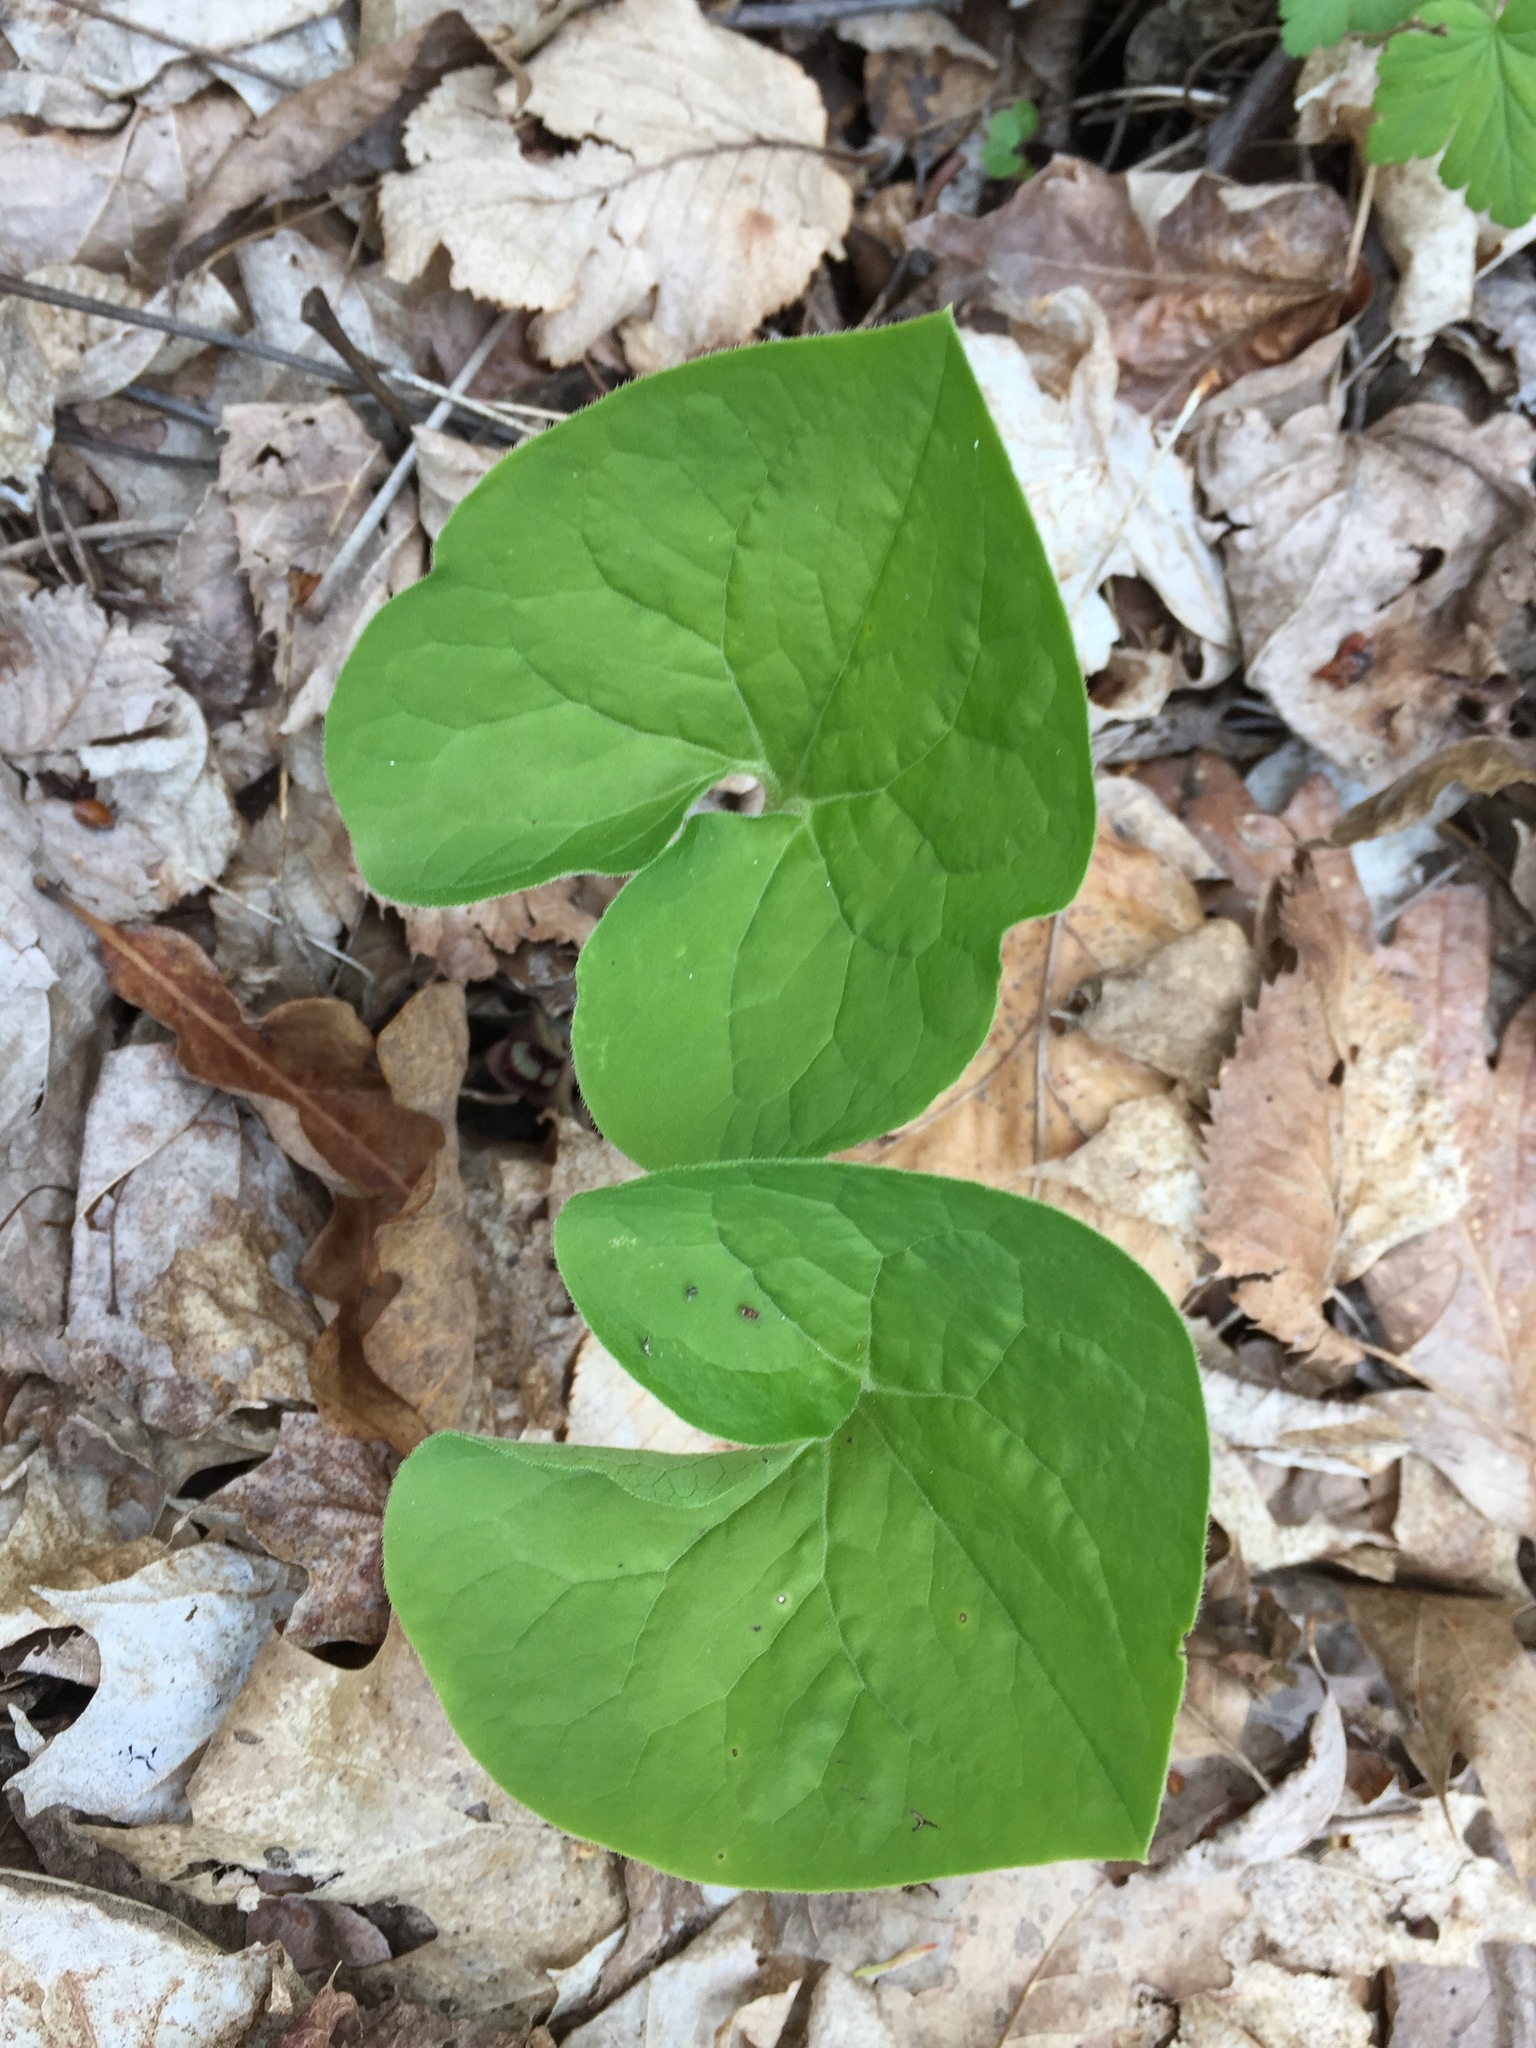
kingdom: Plantae
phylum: Tracheophyta
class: Magnoliopsida
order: Piperales
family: Aristolochiaceae
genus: Asarum
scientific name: Asarum canadense
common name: Wild ginger
